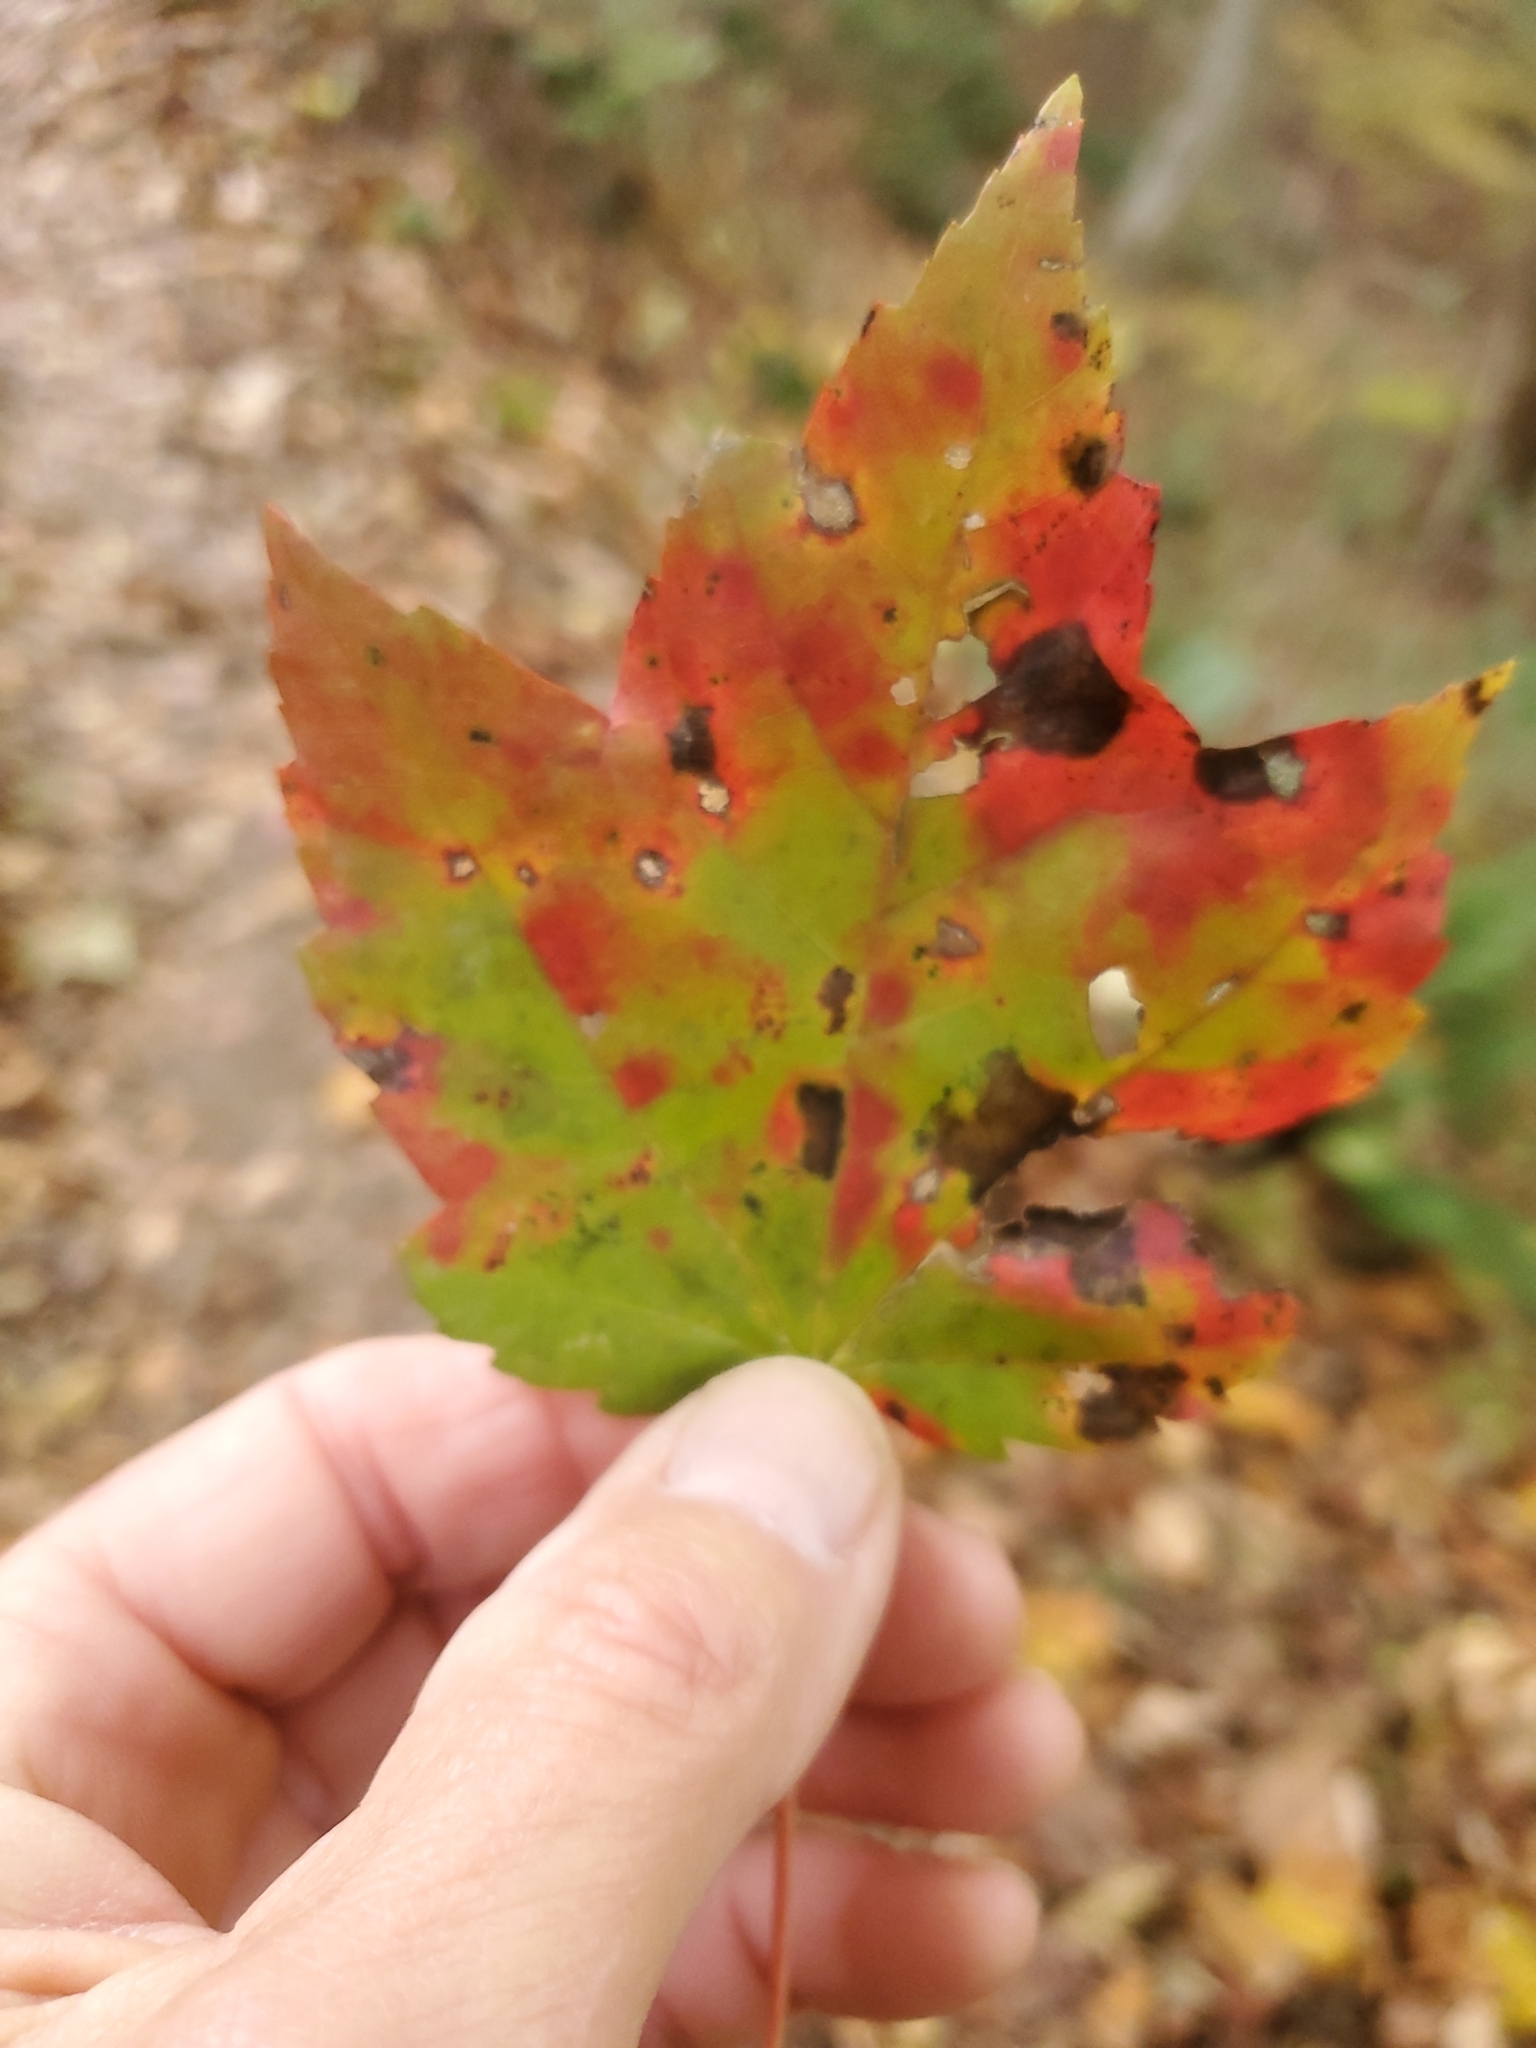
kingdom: Plantae
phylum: Tracheophyta
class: Magnoliopsida
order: Sapindales
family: Sapindaceae
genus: Acer
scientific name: Acer rubrum
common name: Red maple
